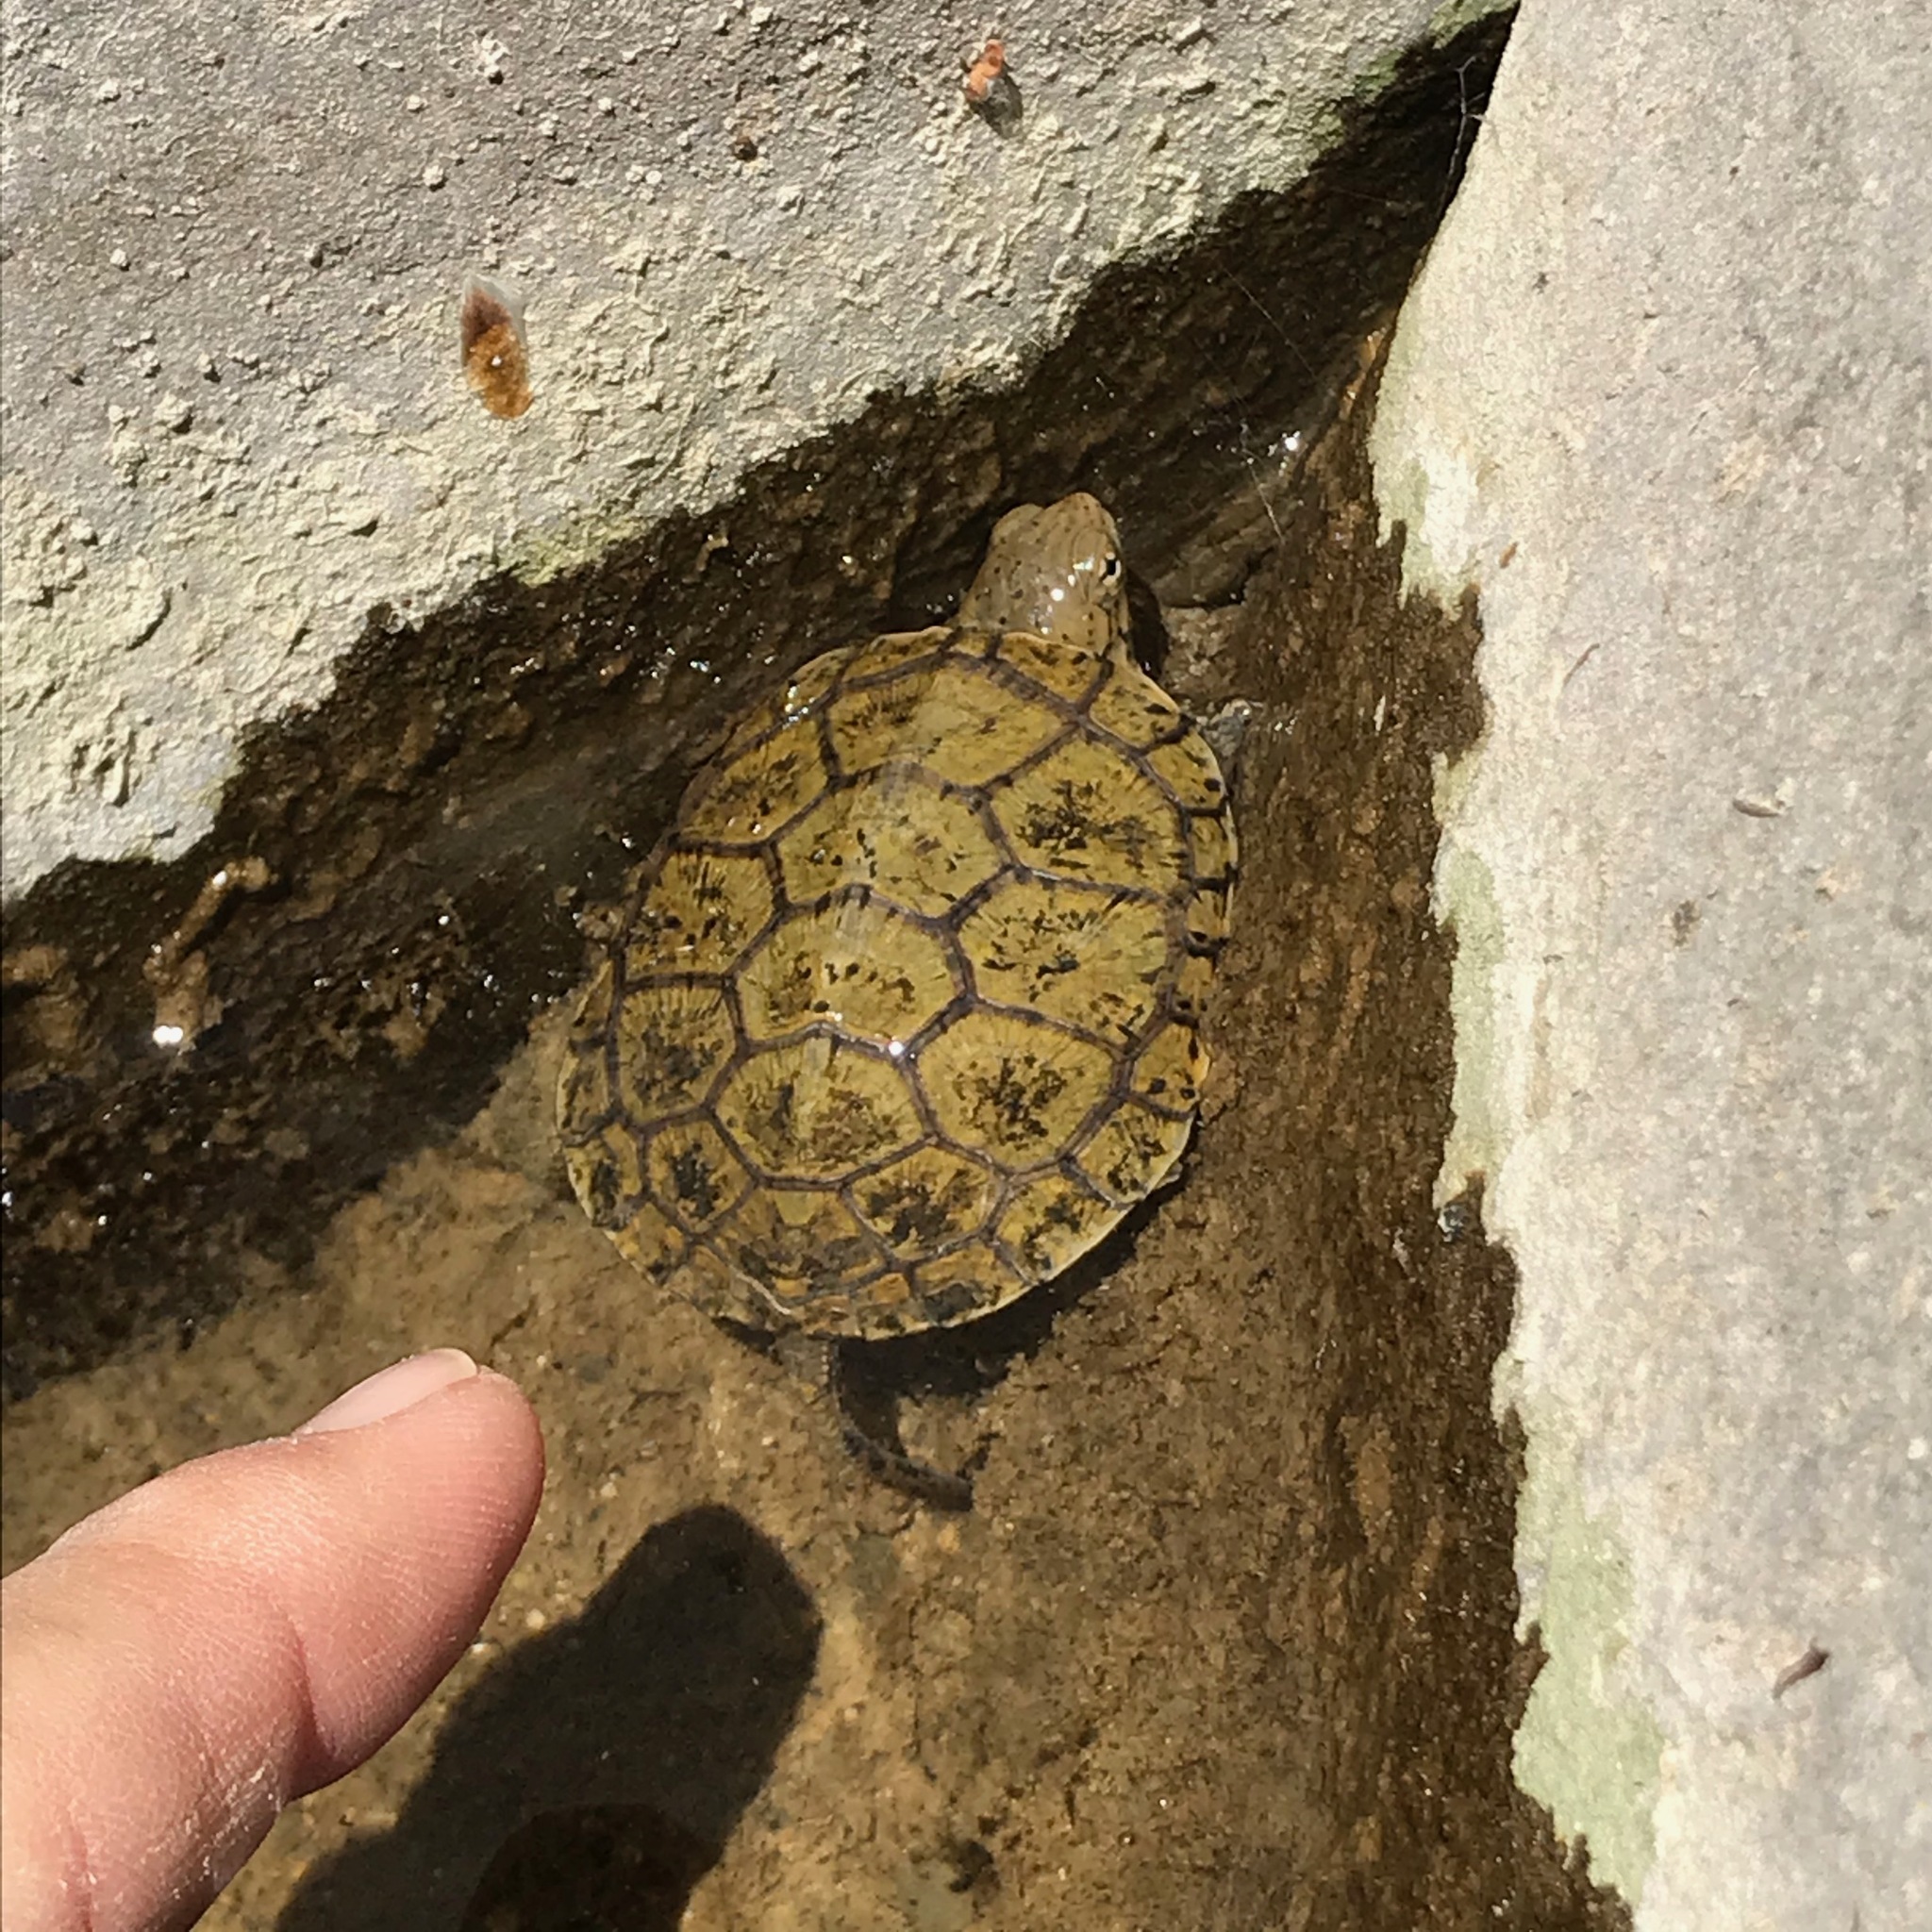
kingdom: Animalia
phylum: Chordata
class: Testudines
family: Emydidae
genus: Actinemys
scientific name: Actinemys pallida
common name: Southern pacific pond turtle
